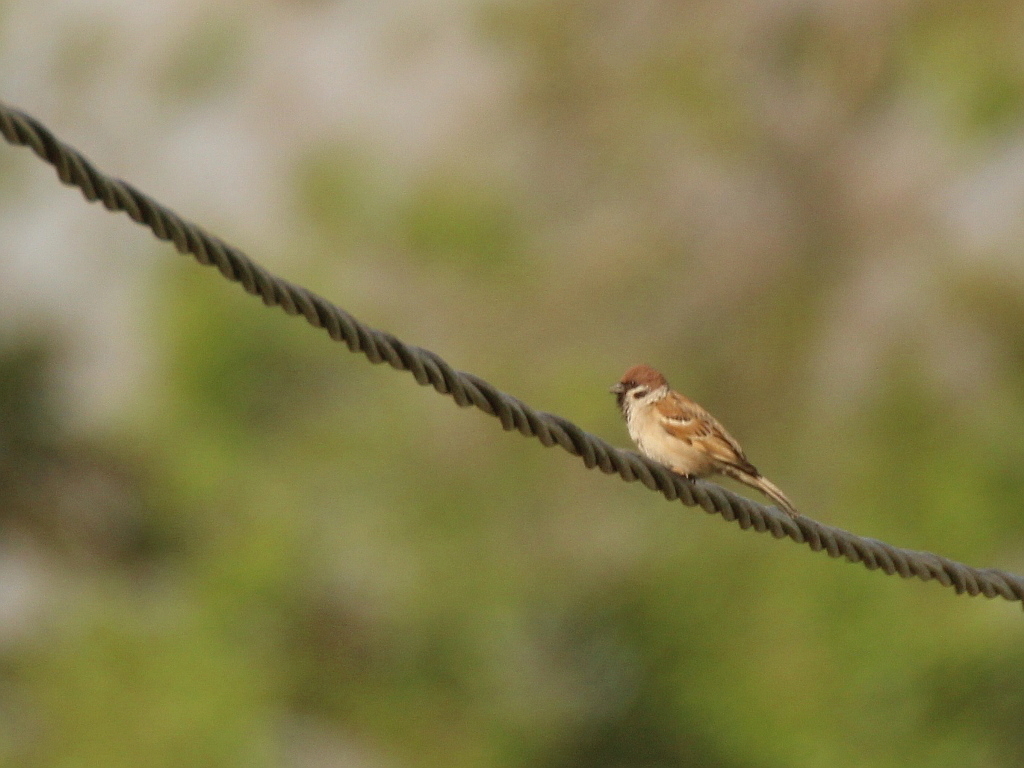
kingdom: Animalia
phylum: Chordata
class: Aves
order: Passeriformes
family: Passeridae
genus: Passer
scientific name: Passer montanus
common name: Eurasian tree sparrow
